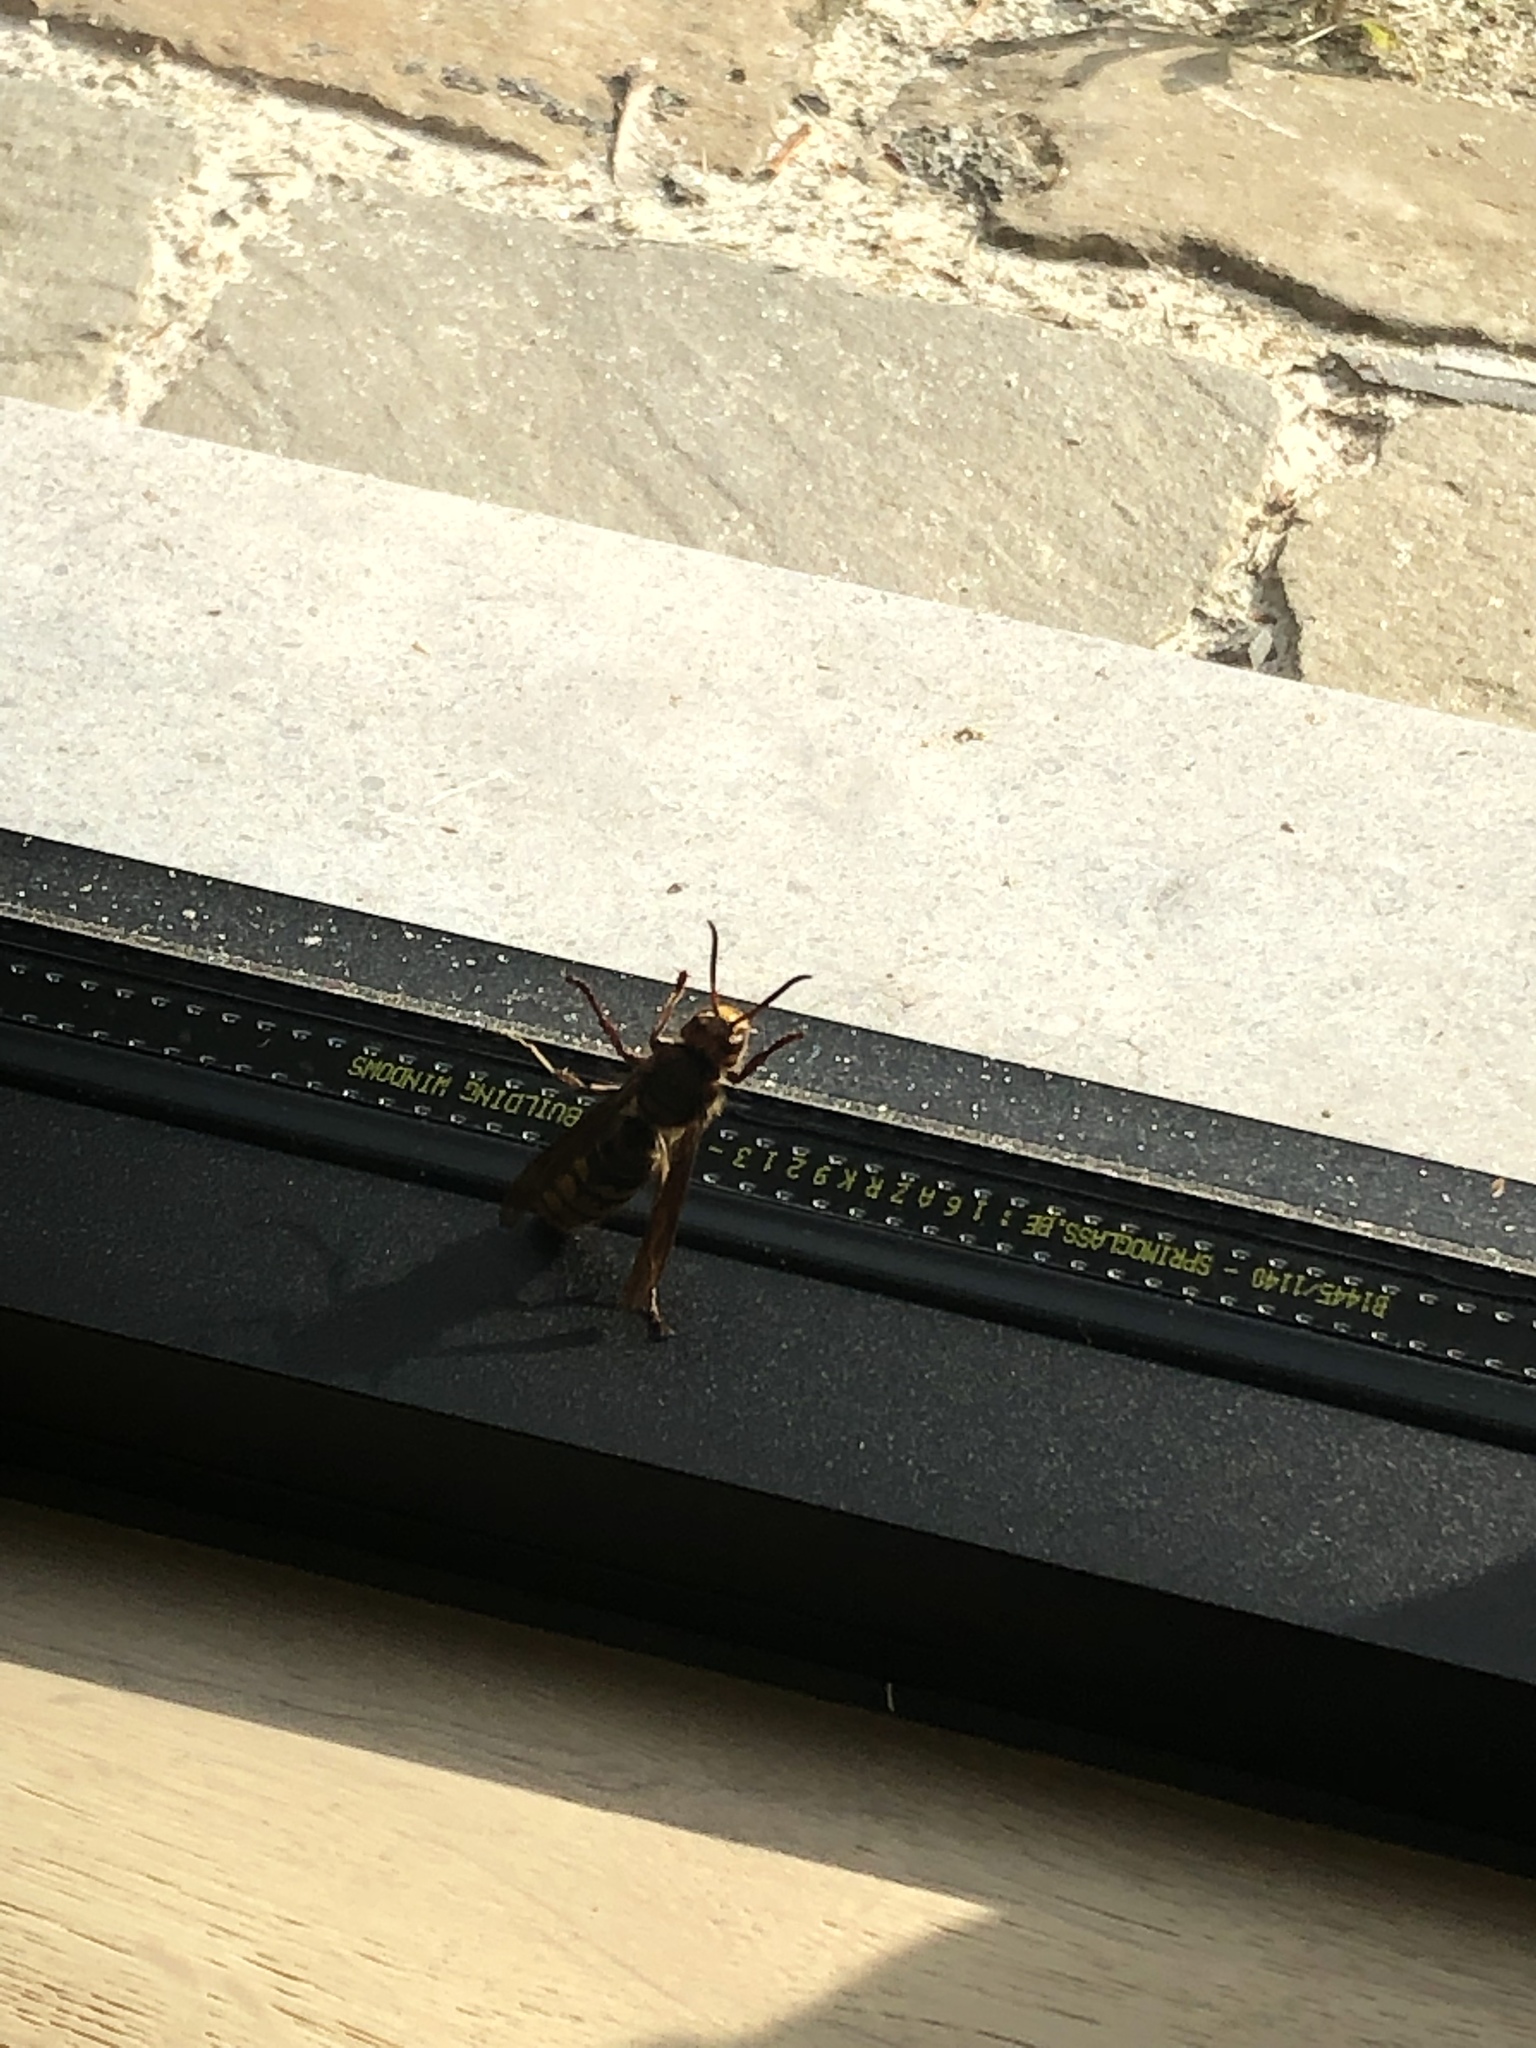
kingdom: Animalia
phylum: Arthropoda
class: Insecta
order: Hymenoptera
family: Vespidae
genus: Vespa
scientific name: Vespa crabro
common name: Hornet
